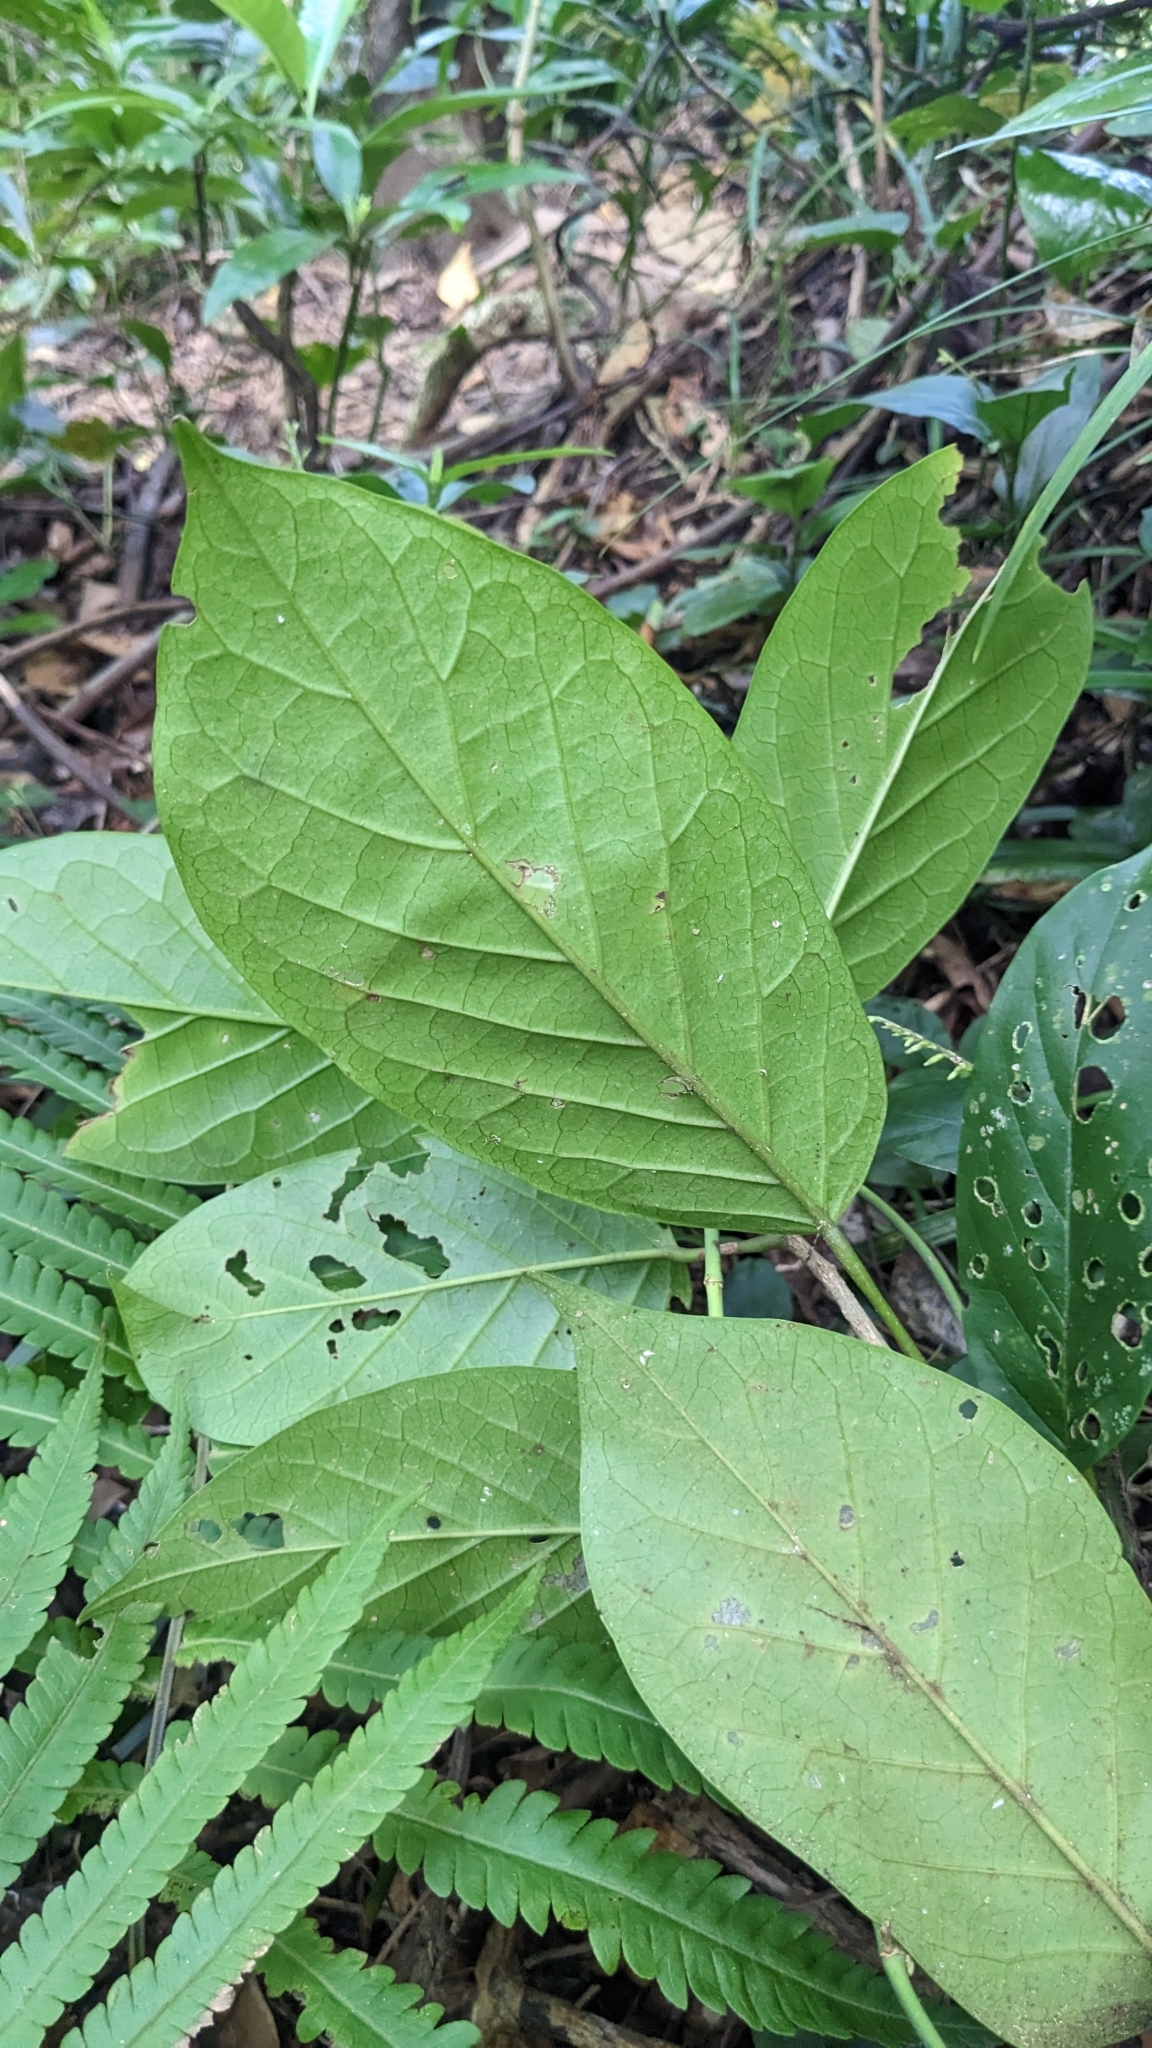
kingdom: Plantae
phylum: Tracheophyta
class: Magnoliopsida
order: Malpighiales
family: Phyllanthaceae
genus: Antidesma
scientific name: Antidesma pleuricum
